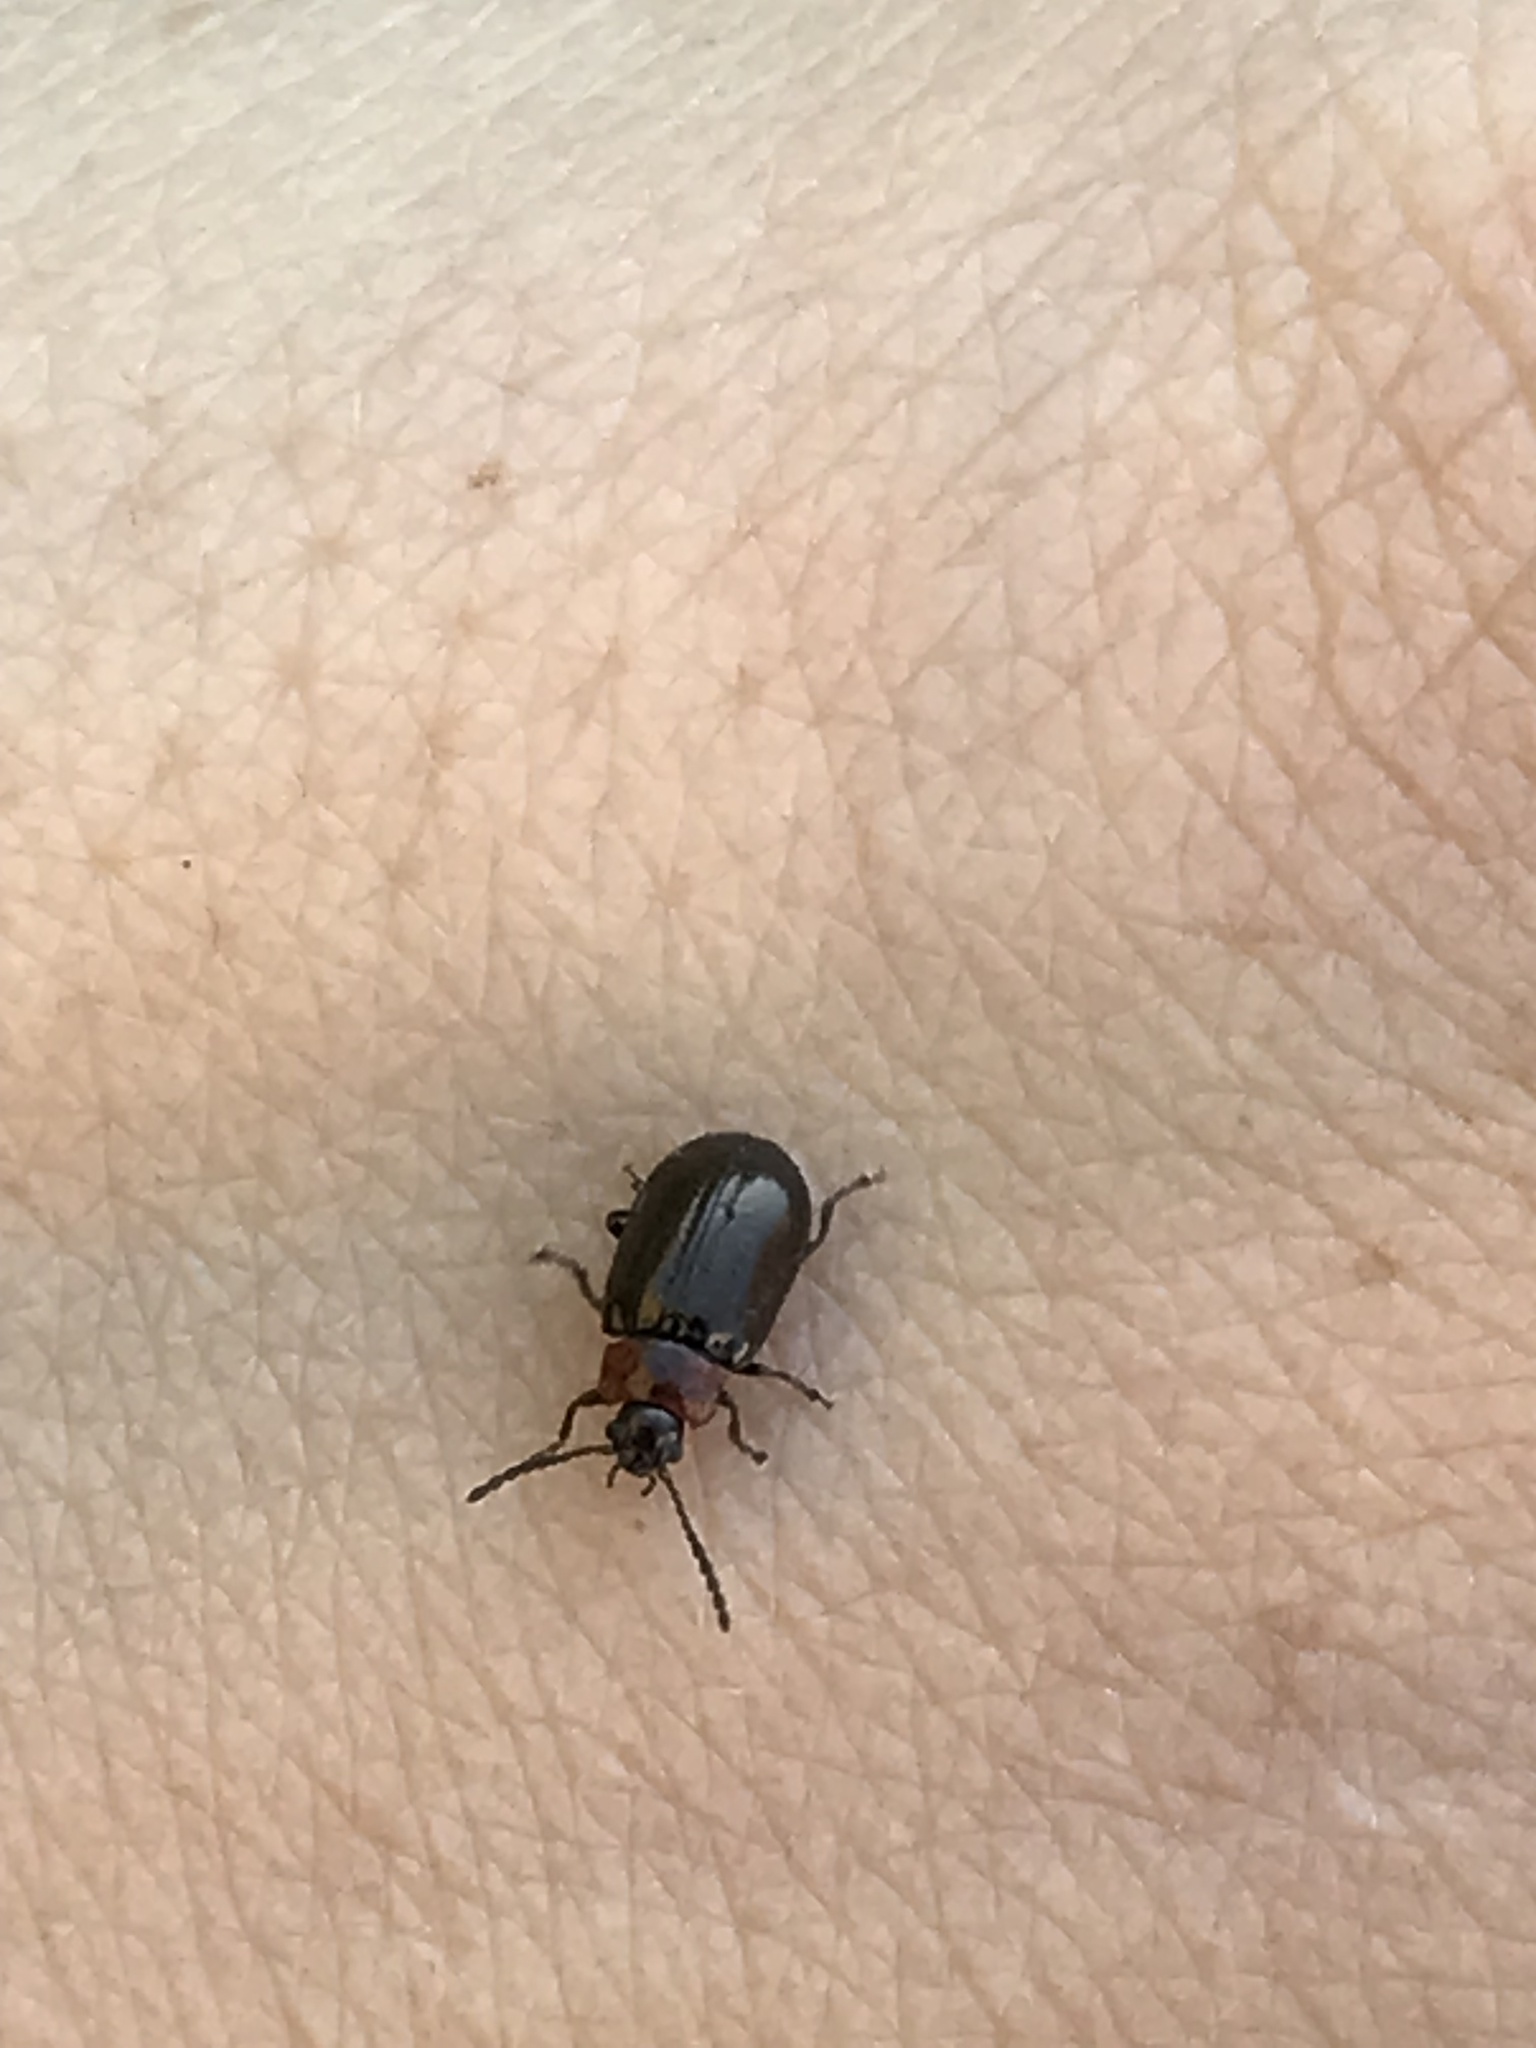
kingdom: Animalia
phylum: Arthropoda
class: Insecta
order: Coleoptera
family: Chrysomelidae
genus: Microtheca
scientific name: Microtheca
